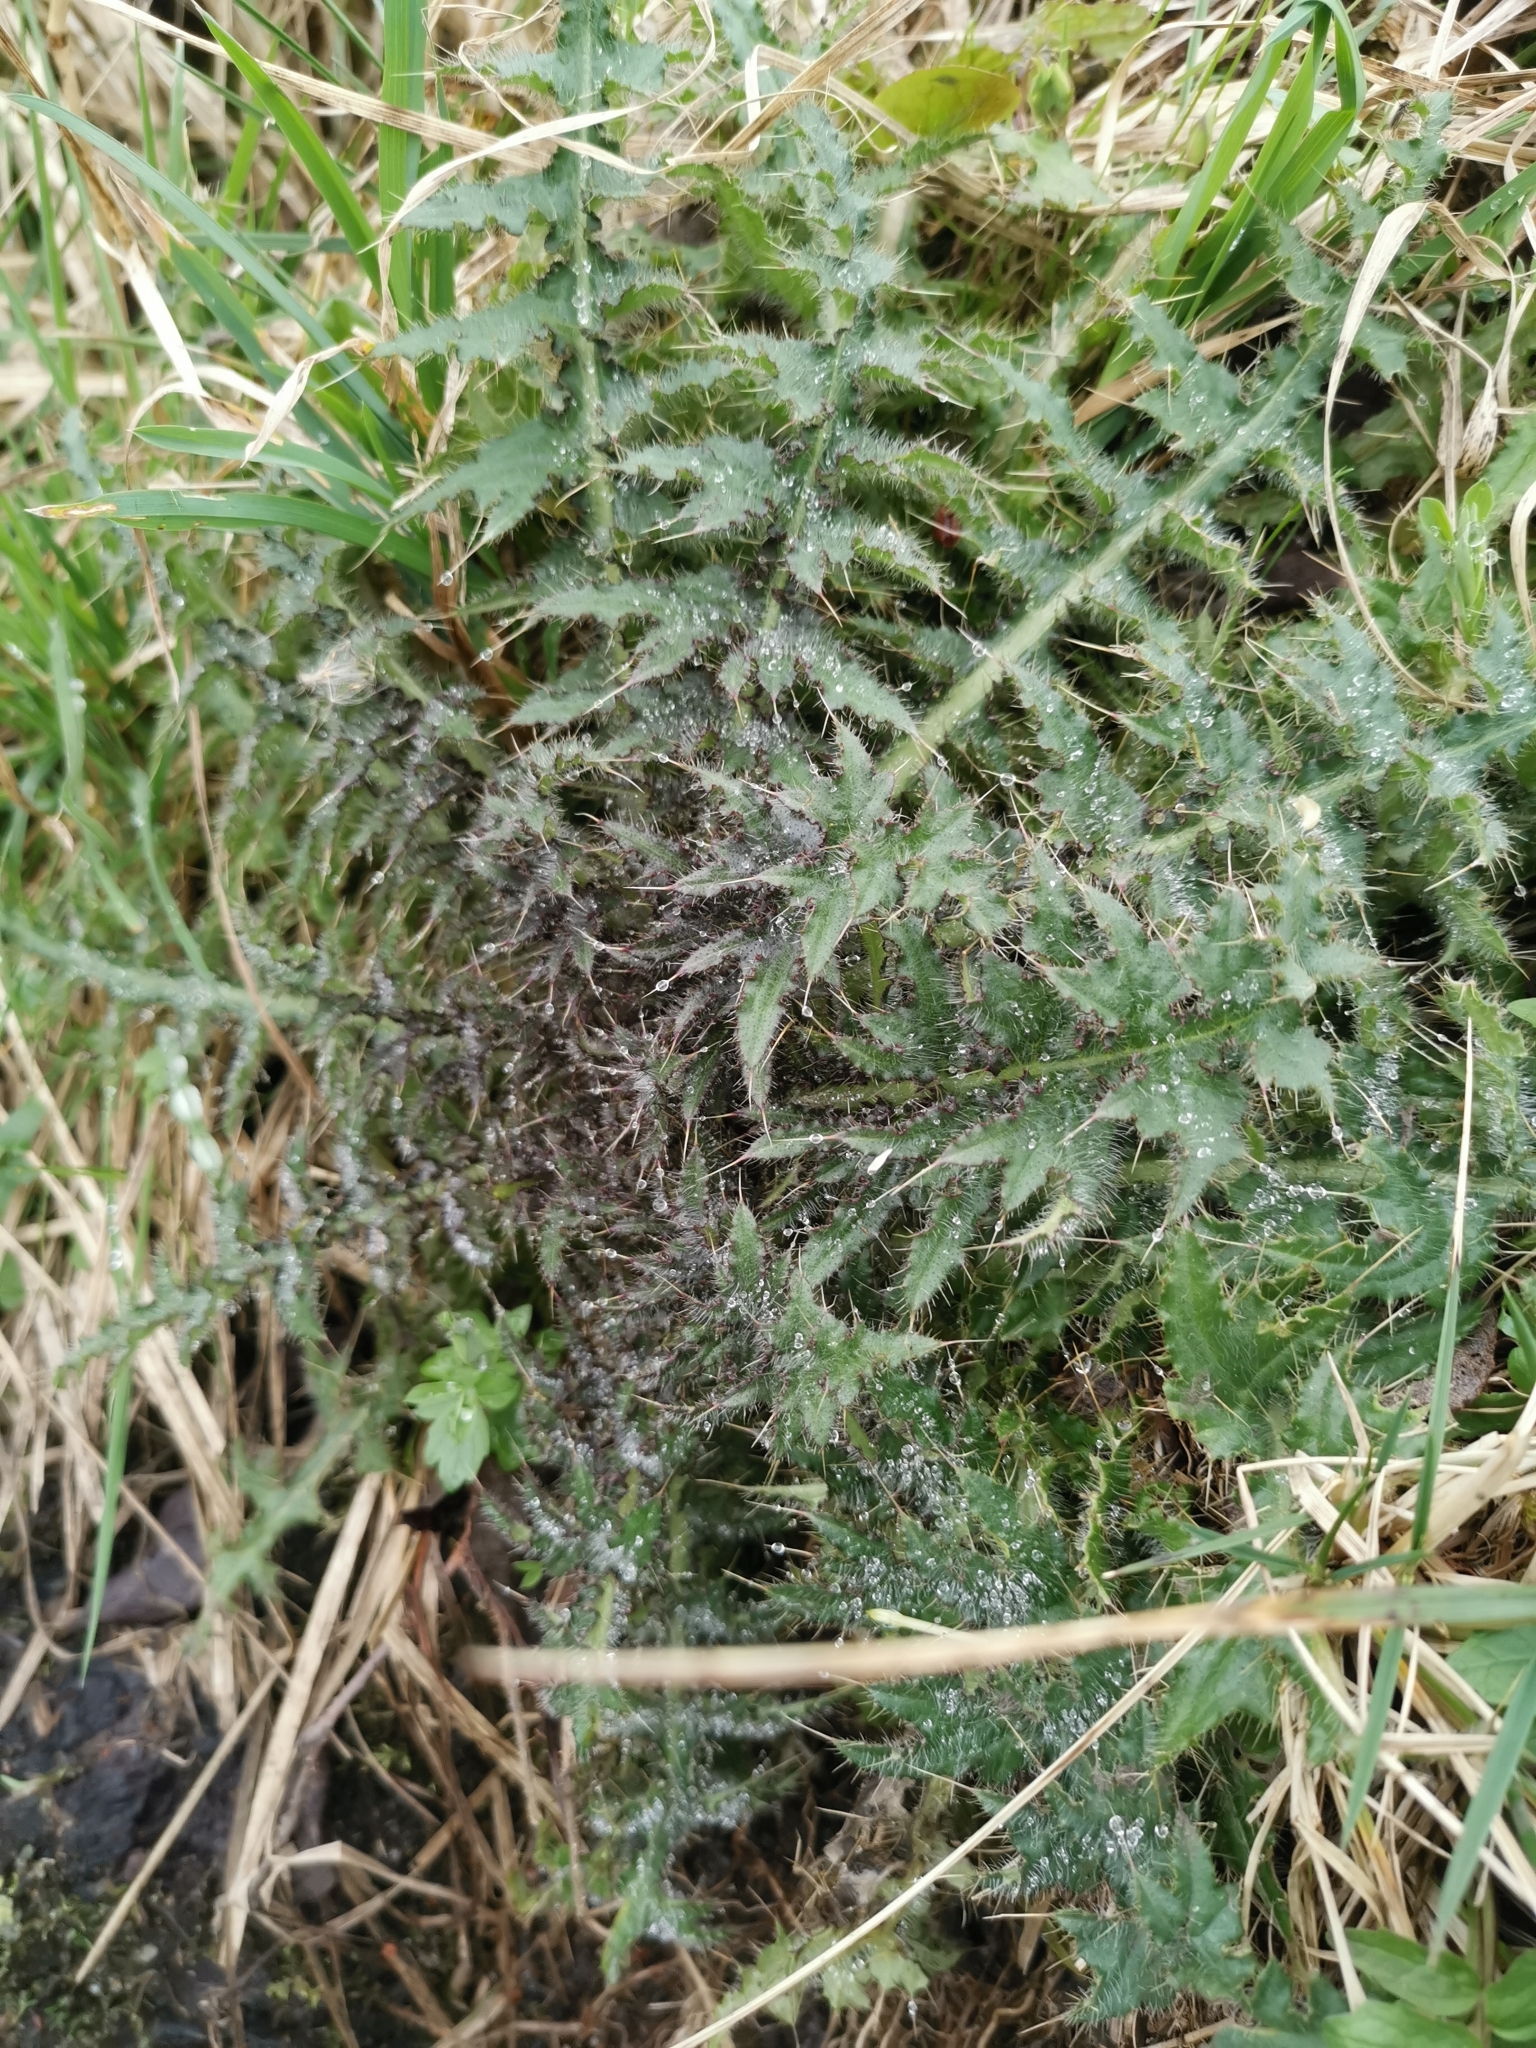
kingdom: Plantae
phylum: Tracheophyta
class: Magnoliopsida
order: Asterales
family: Asteraceae
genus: Cirsium
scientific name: Cirsium palustre
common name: Marsh thistle
